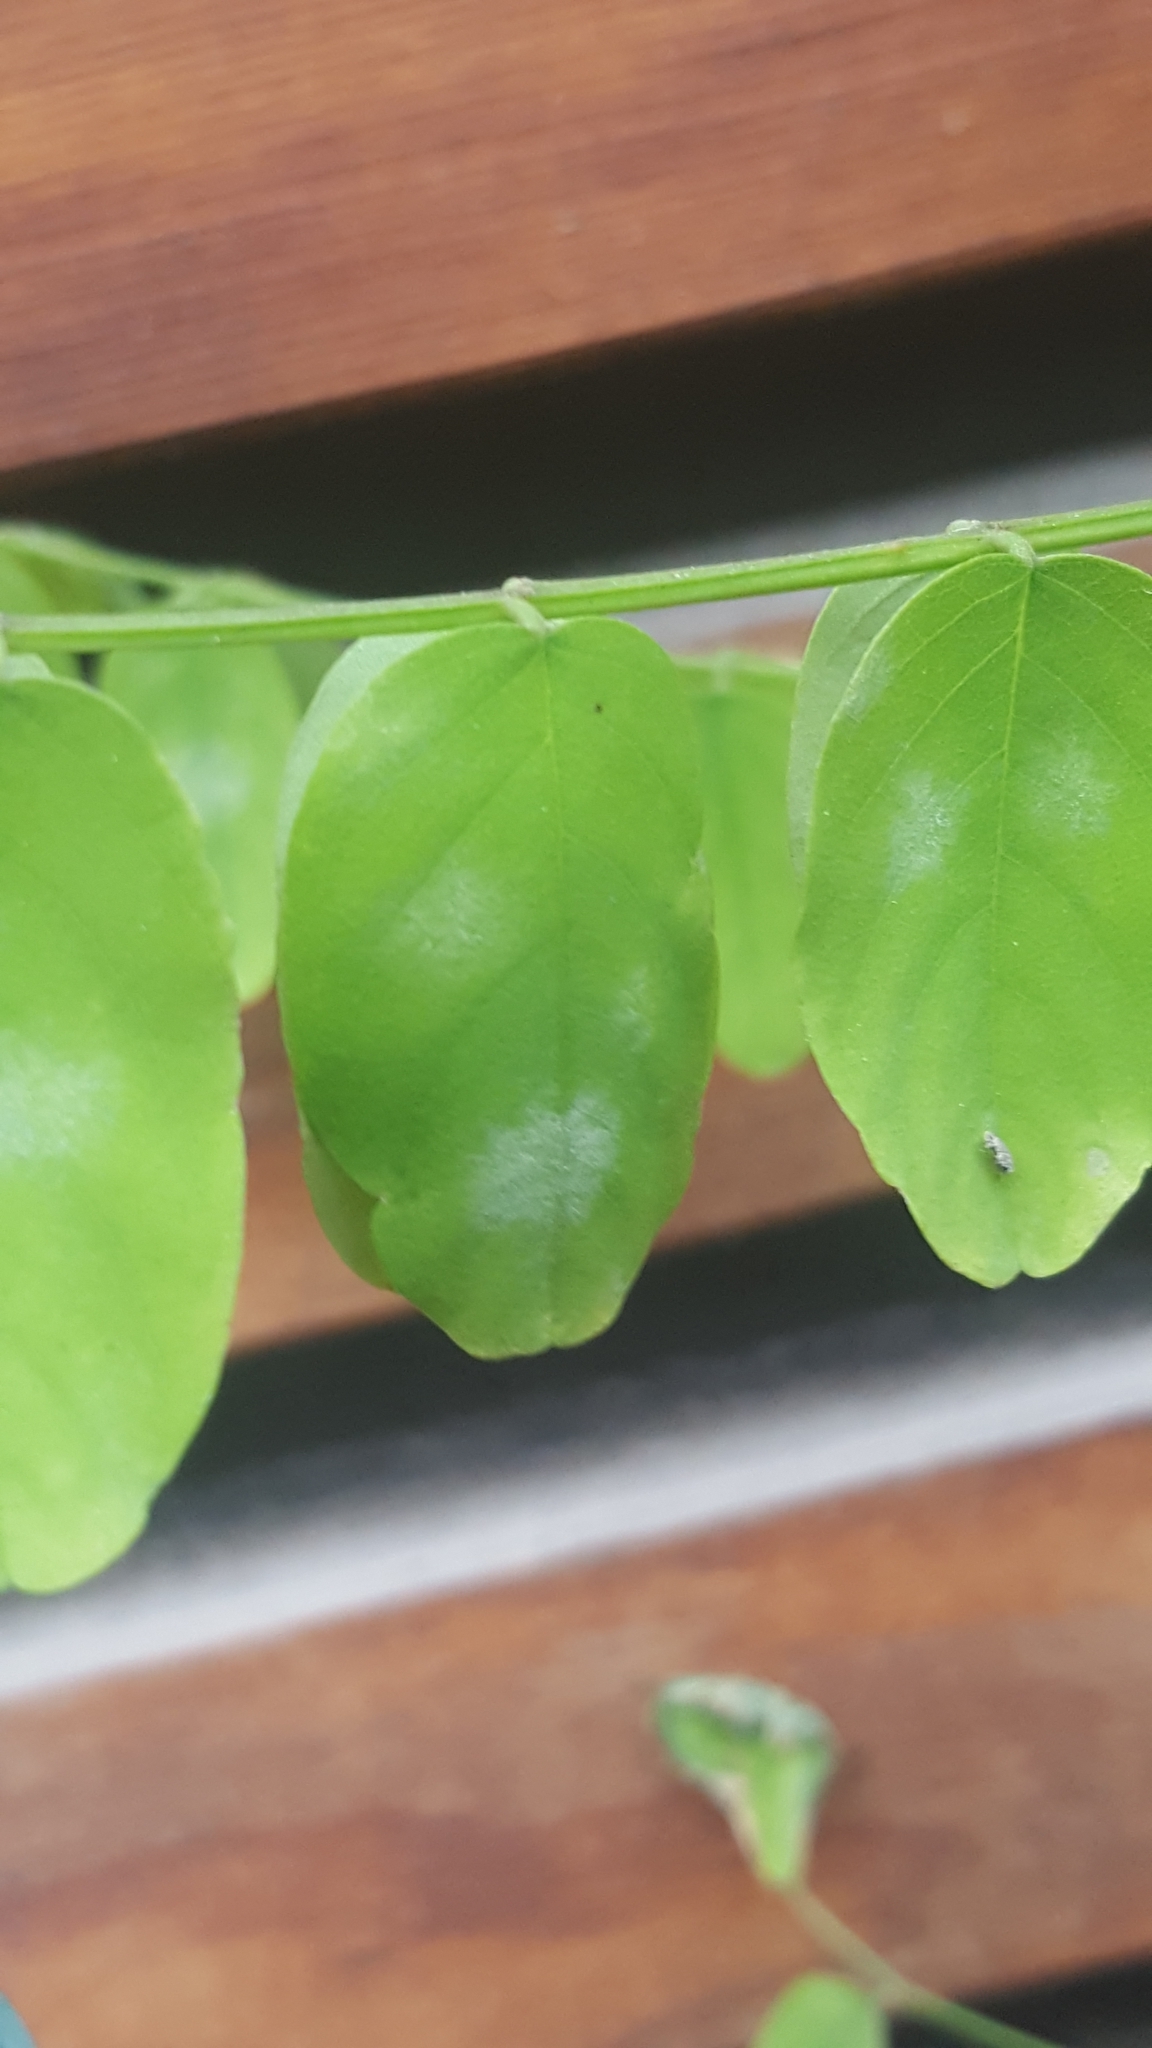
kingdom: Fungi
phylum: Ascomycota
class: Leotiomycetes
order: Helotiales
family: Erysiphaceae
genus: Erysiphe
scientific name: Erysiphe palczewskii
